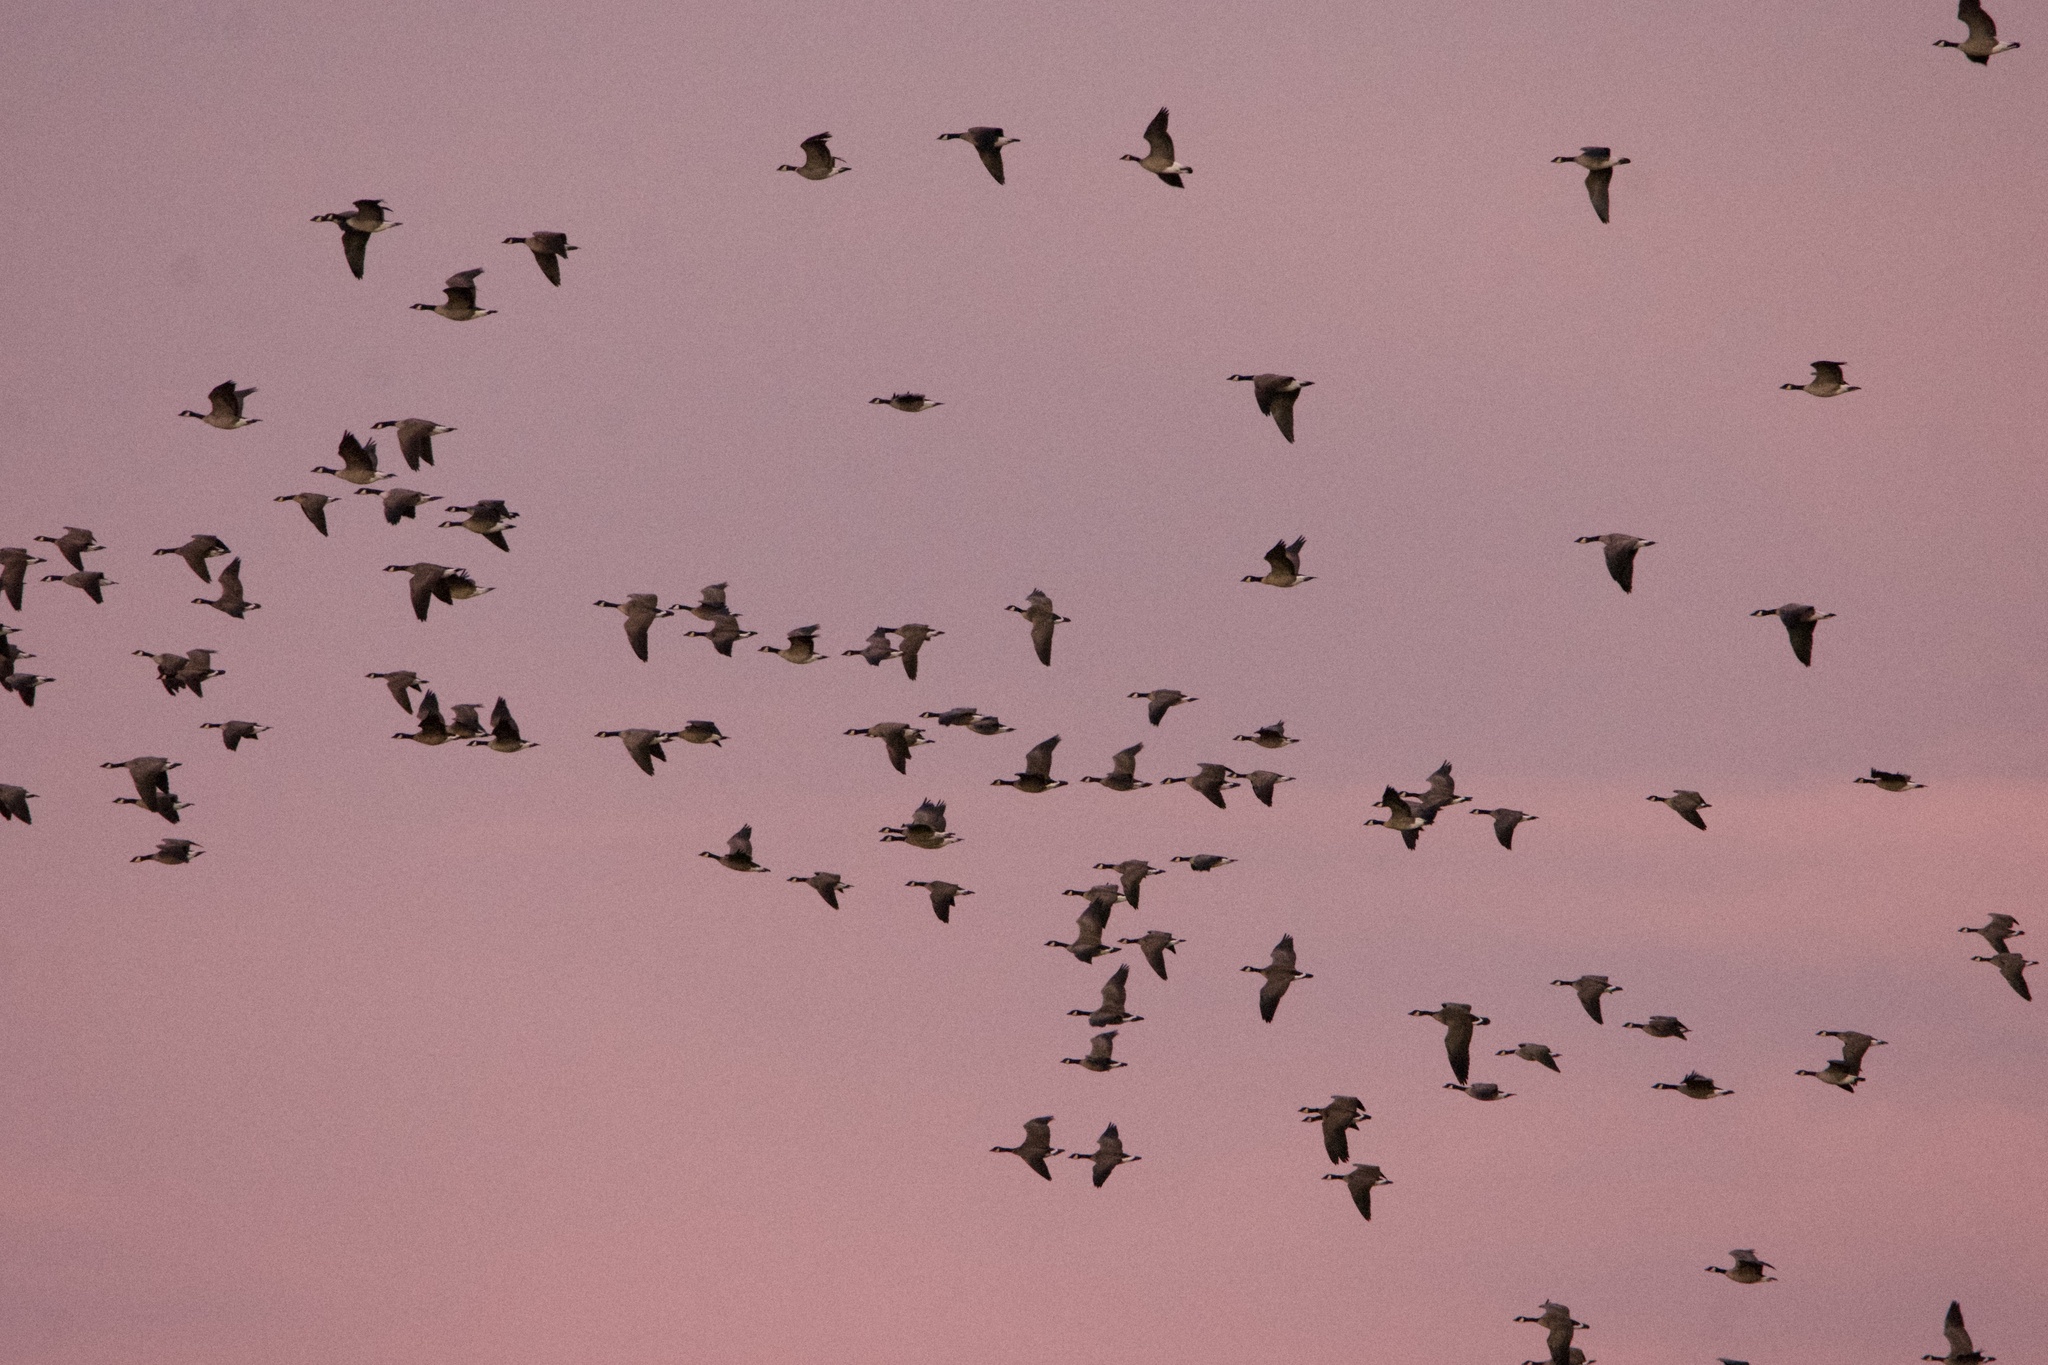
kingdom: Animalia
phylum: Chordata
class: Aves
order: Anseriformes
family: Anatidae
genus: Branta
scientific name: Branta hutchinsii
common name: Cackling goose
